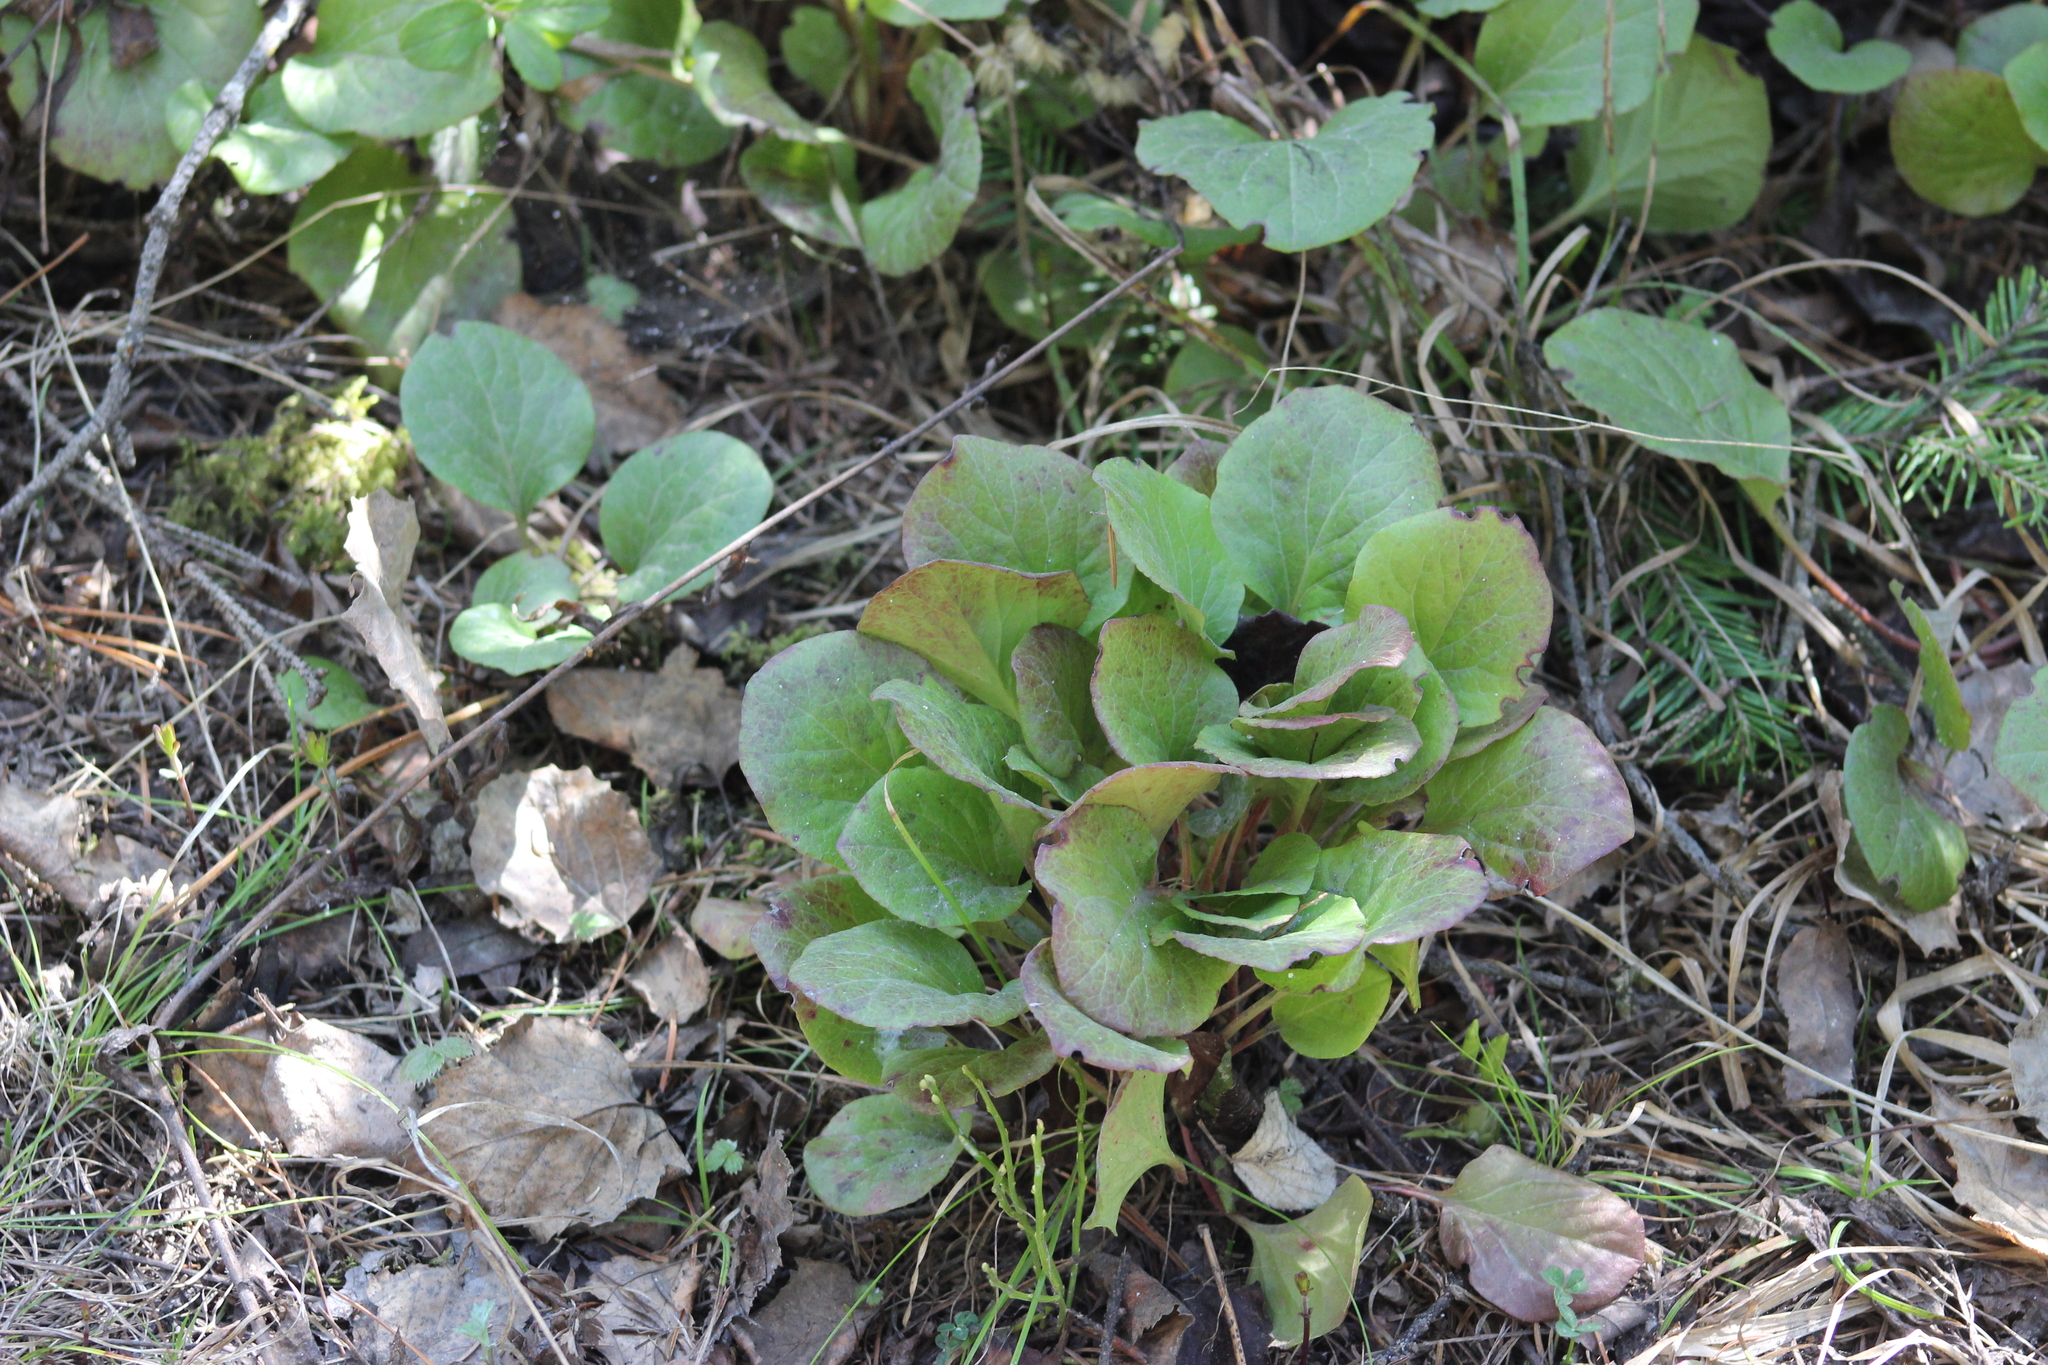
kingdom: Plantae
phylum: Tracheophyta
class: Magnoliopsida
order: Ericales
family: Ericaceae
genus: Pyrola
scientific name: Pyrola asarifolia
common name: Bog wintergreen
